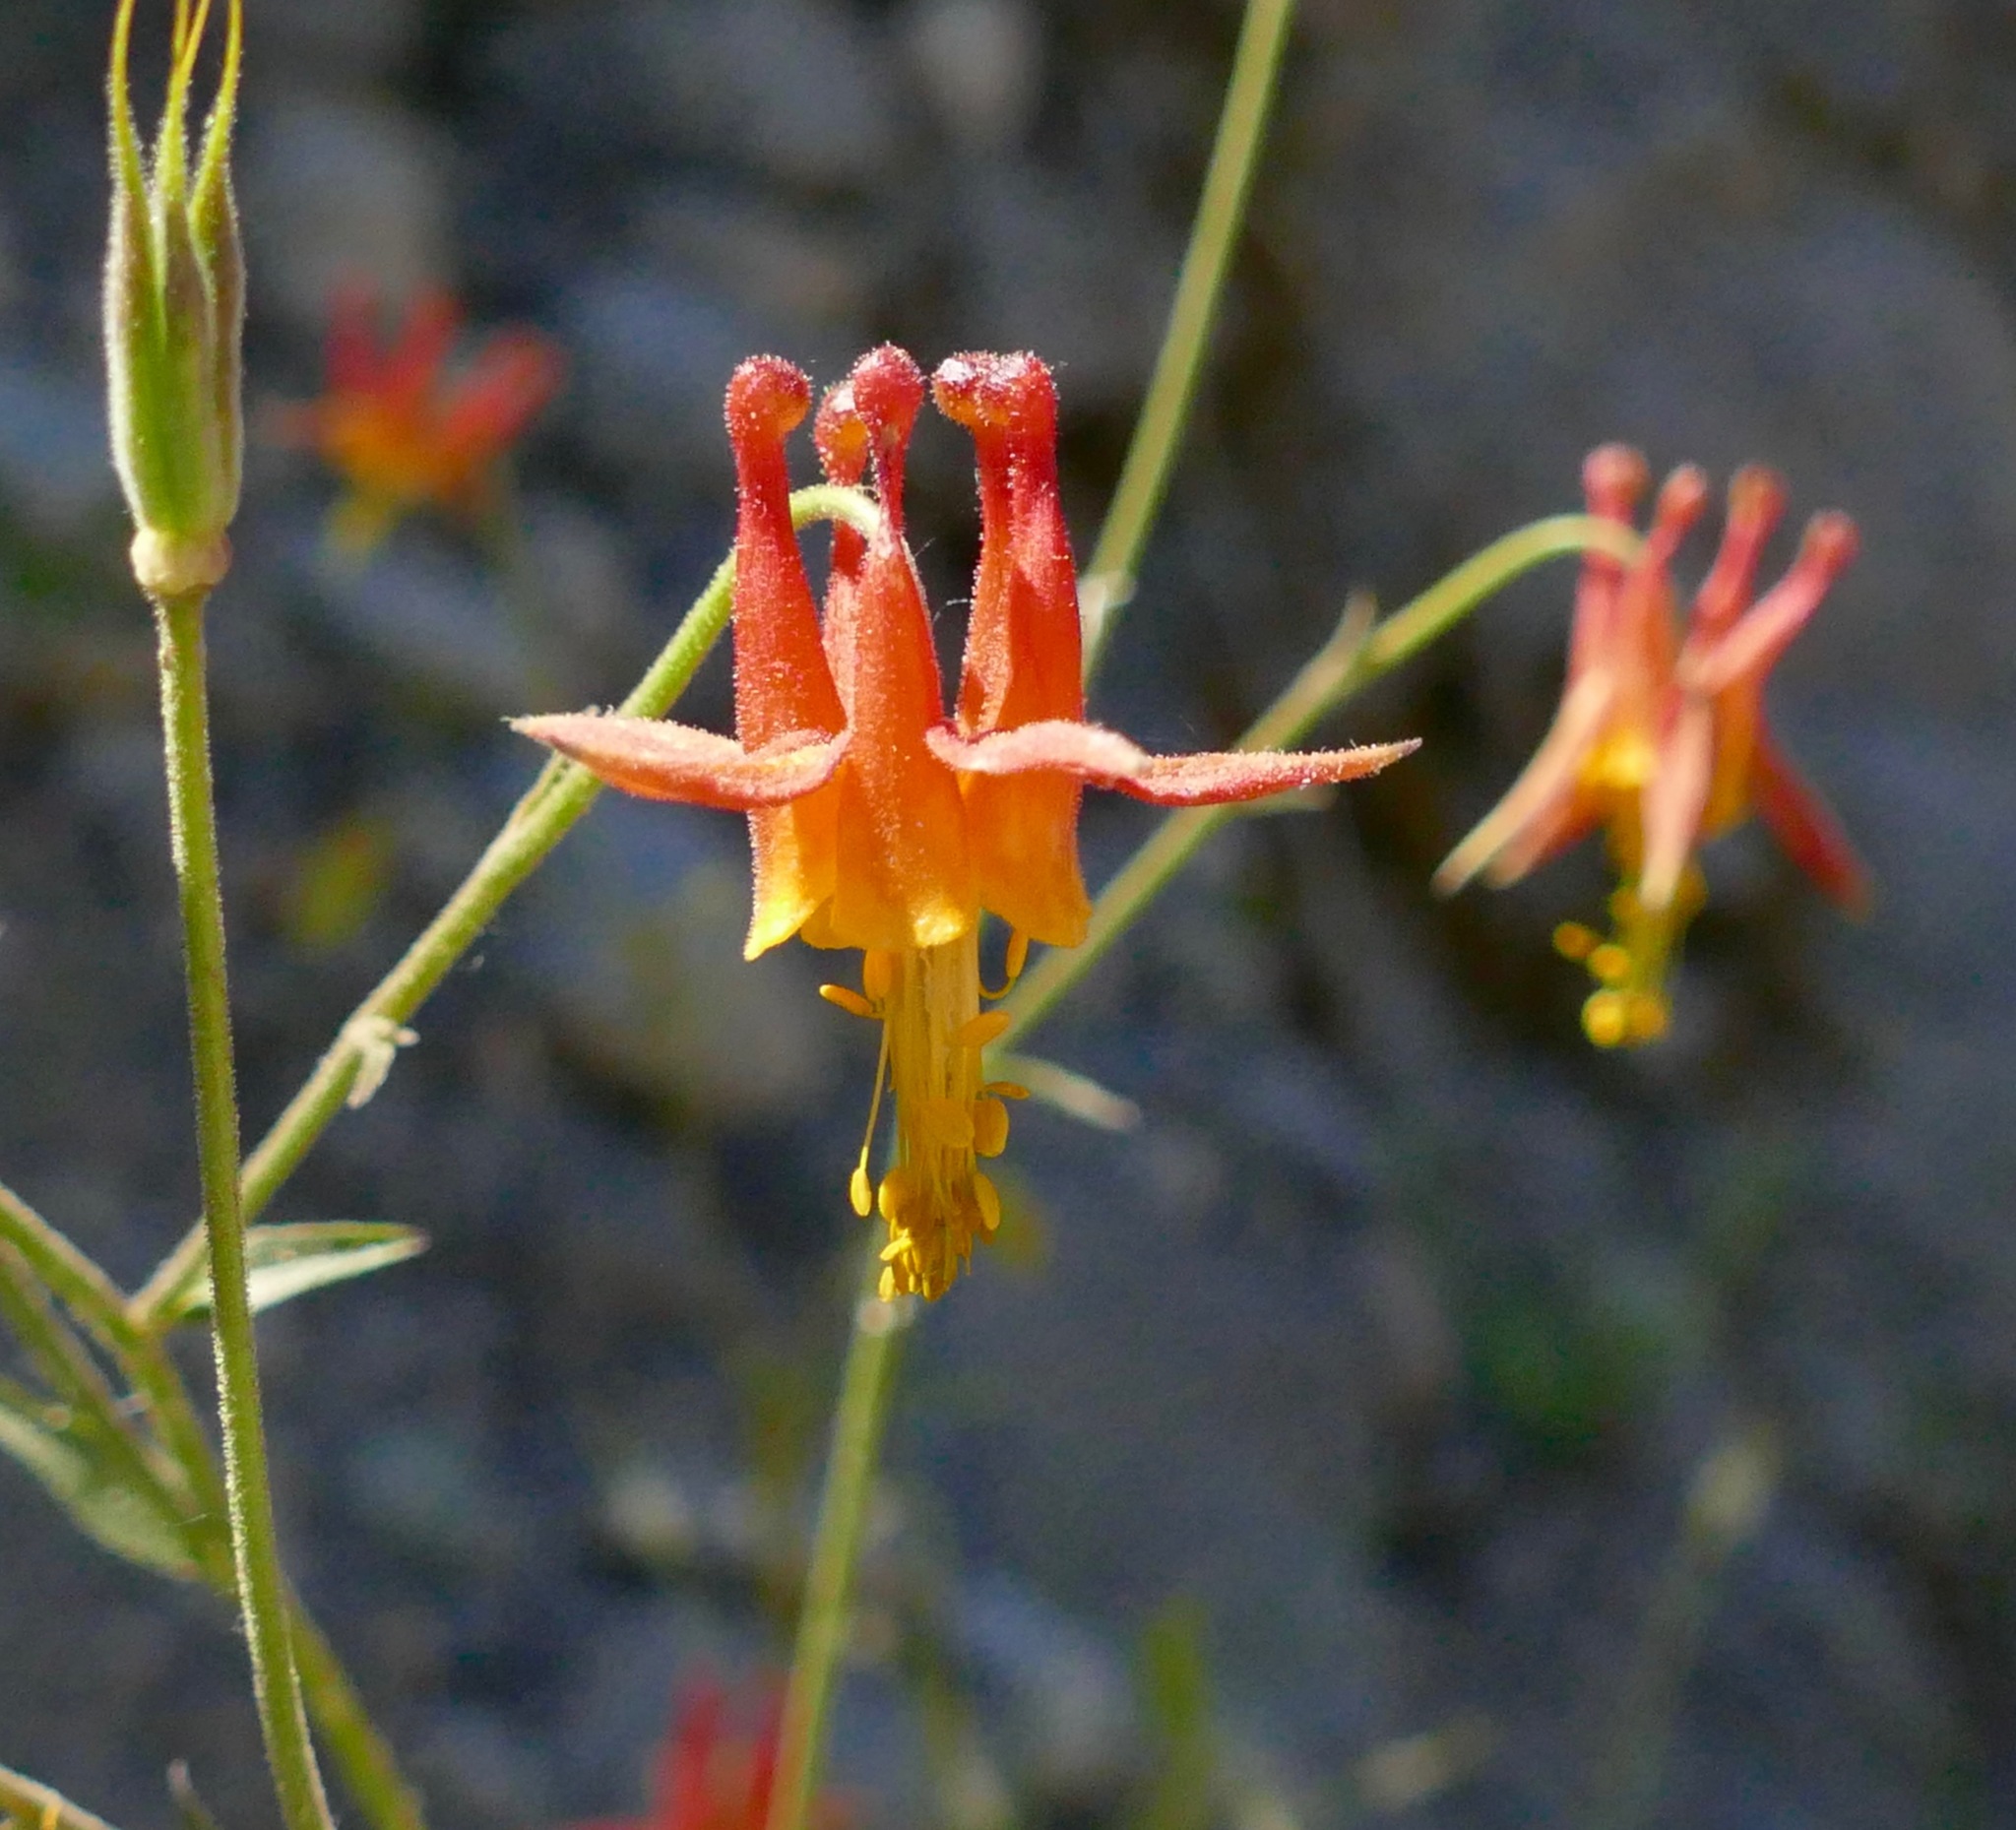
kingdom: Plantae
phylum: Tracheophyta
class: Magnoliopsida
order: Ranunculales
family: Ranunculaceae
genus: Aquilegia
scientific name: Aquilegia formosa
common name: Sitka columbine
